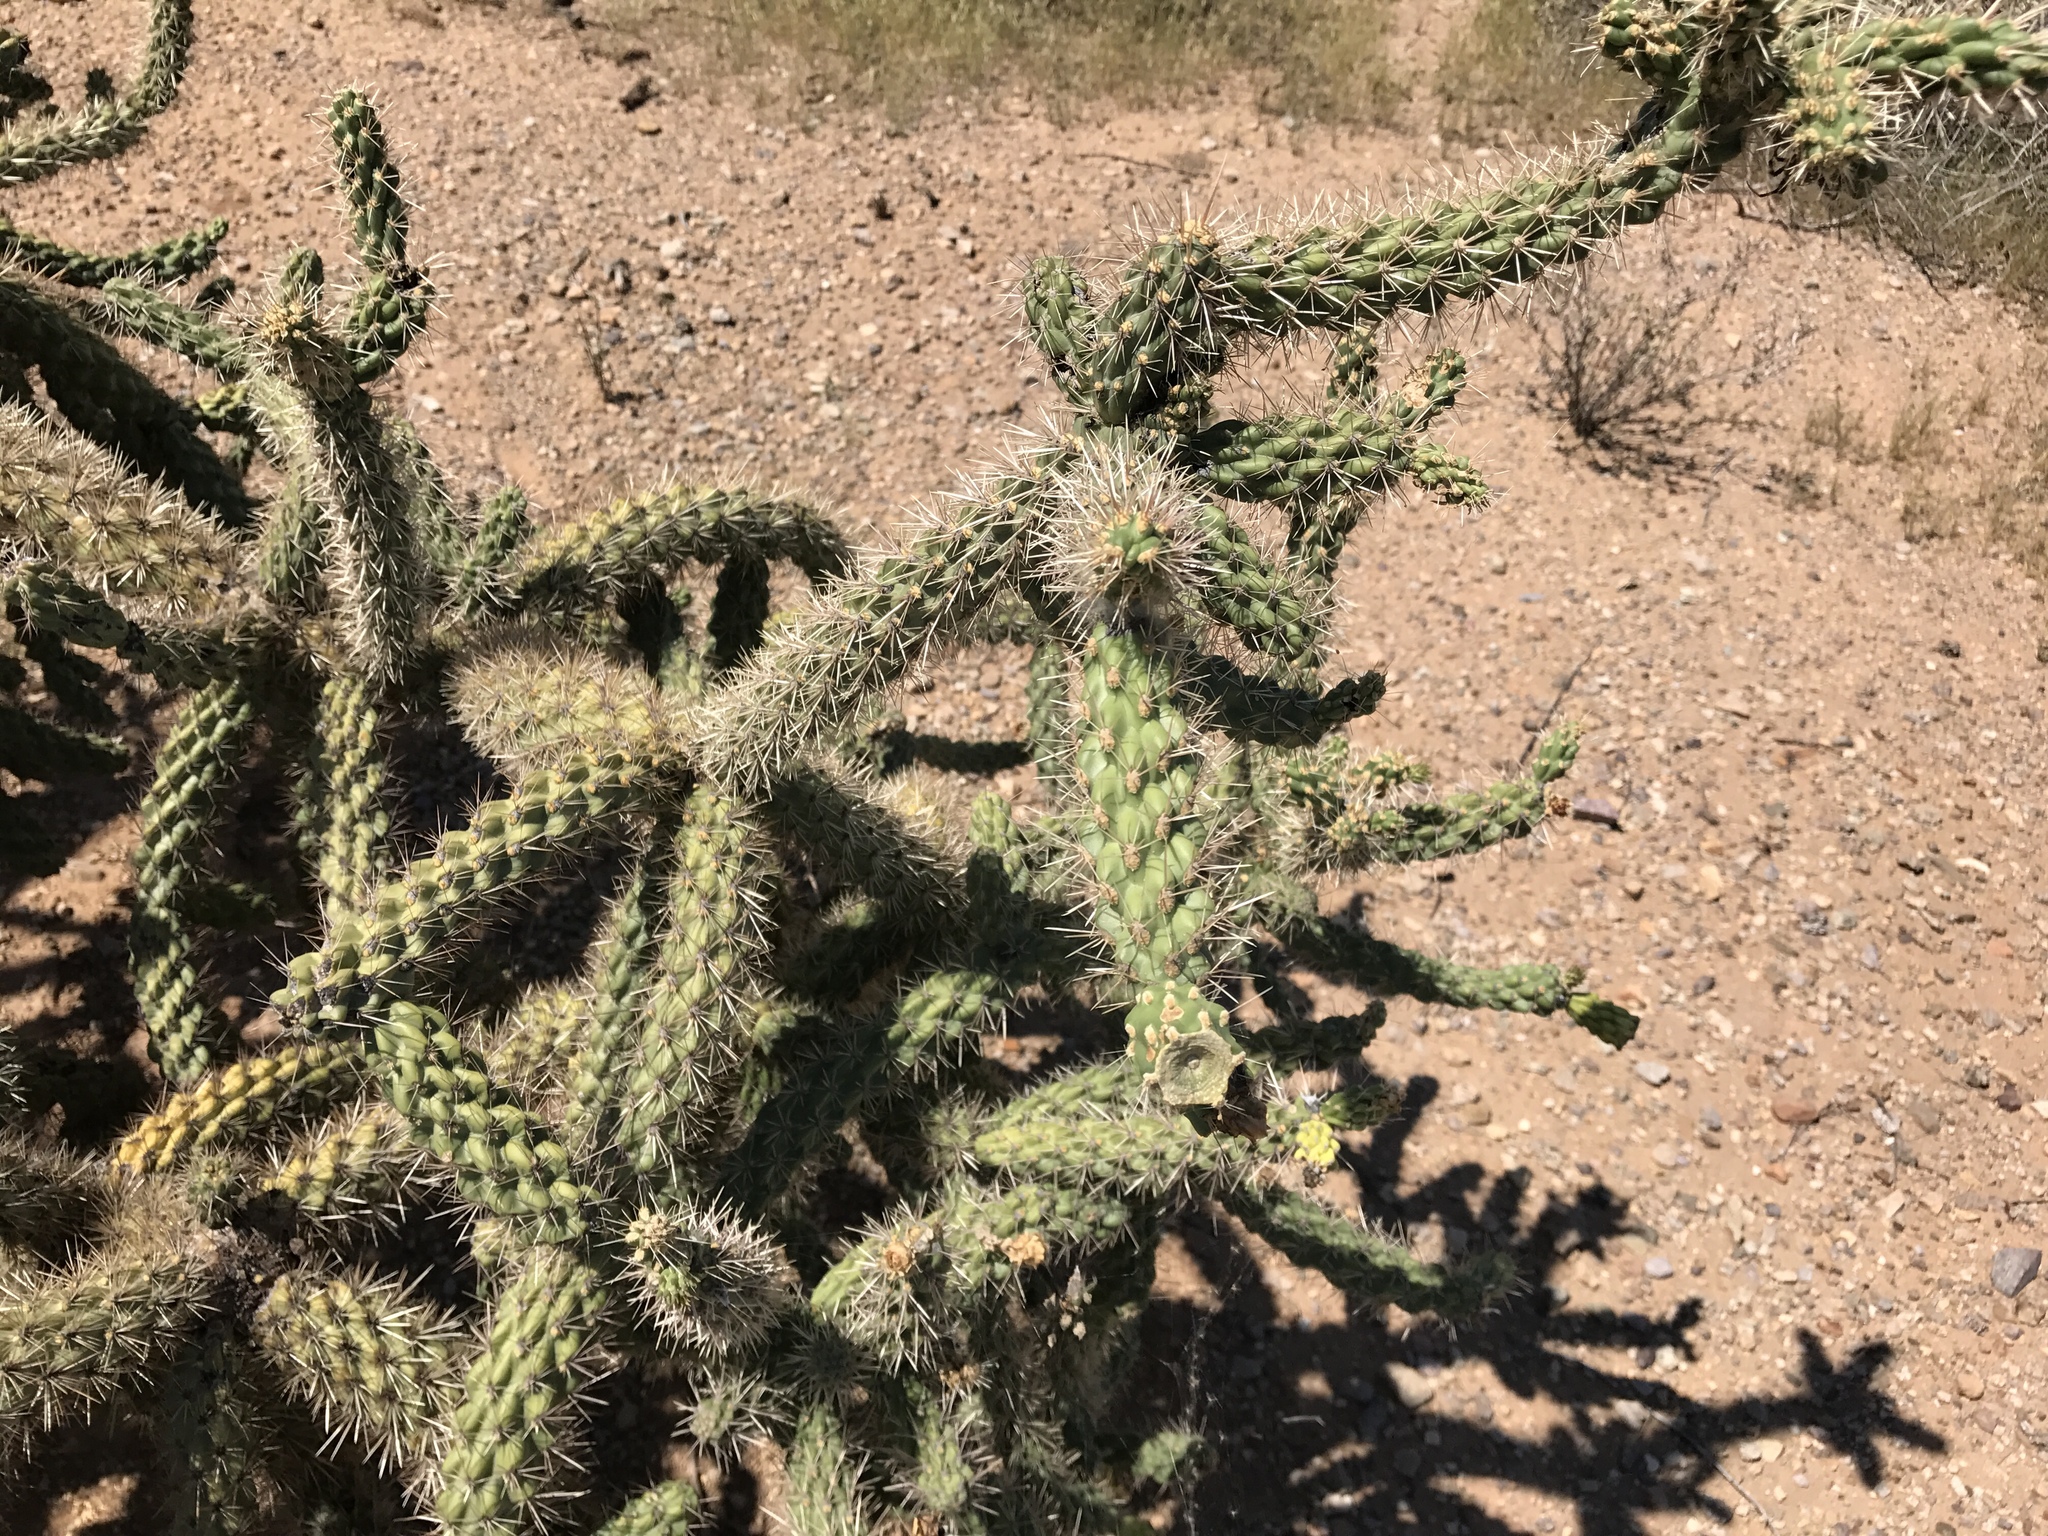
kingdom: Plantae
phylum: Tracheophyta
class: Magnoliopsida
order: Caryophyllales
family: Cactaceae
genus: Cylindropuntia
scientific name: Cylindropuntia imbricata
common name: Candelabrum cactus
